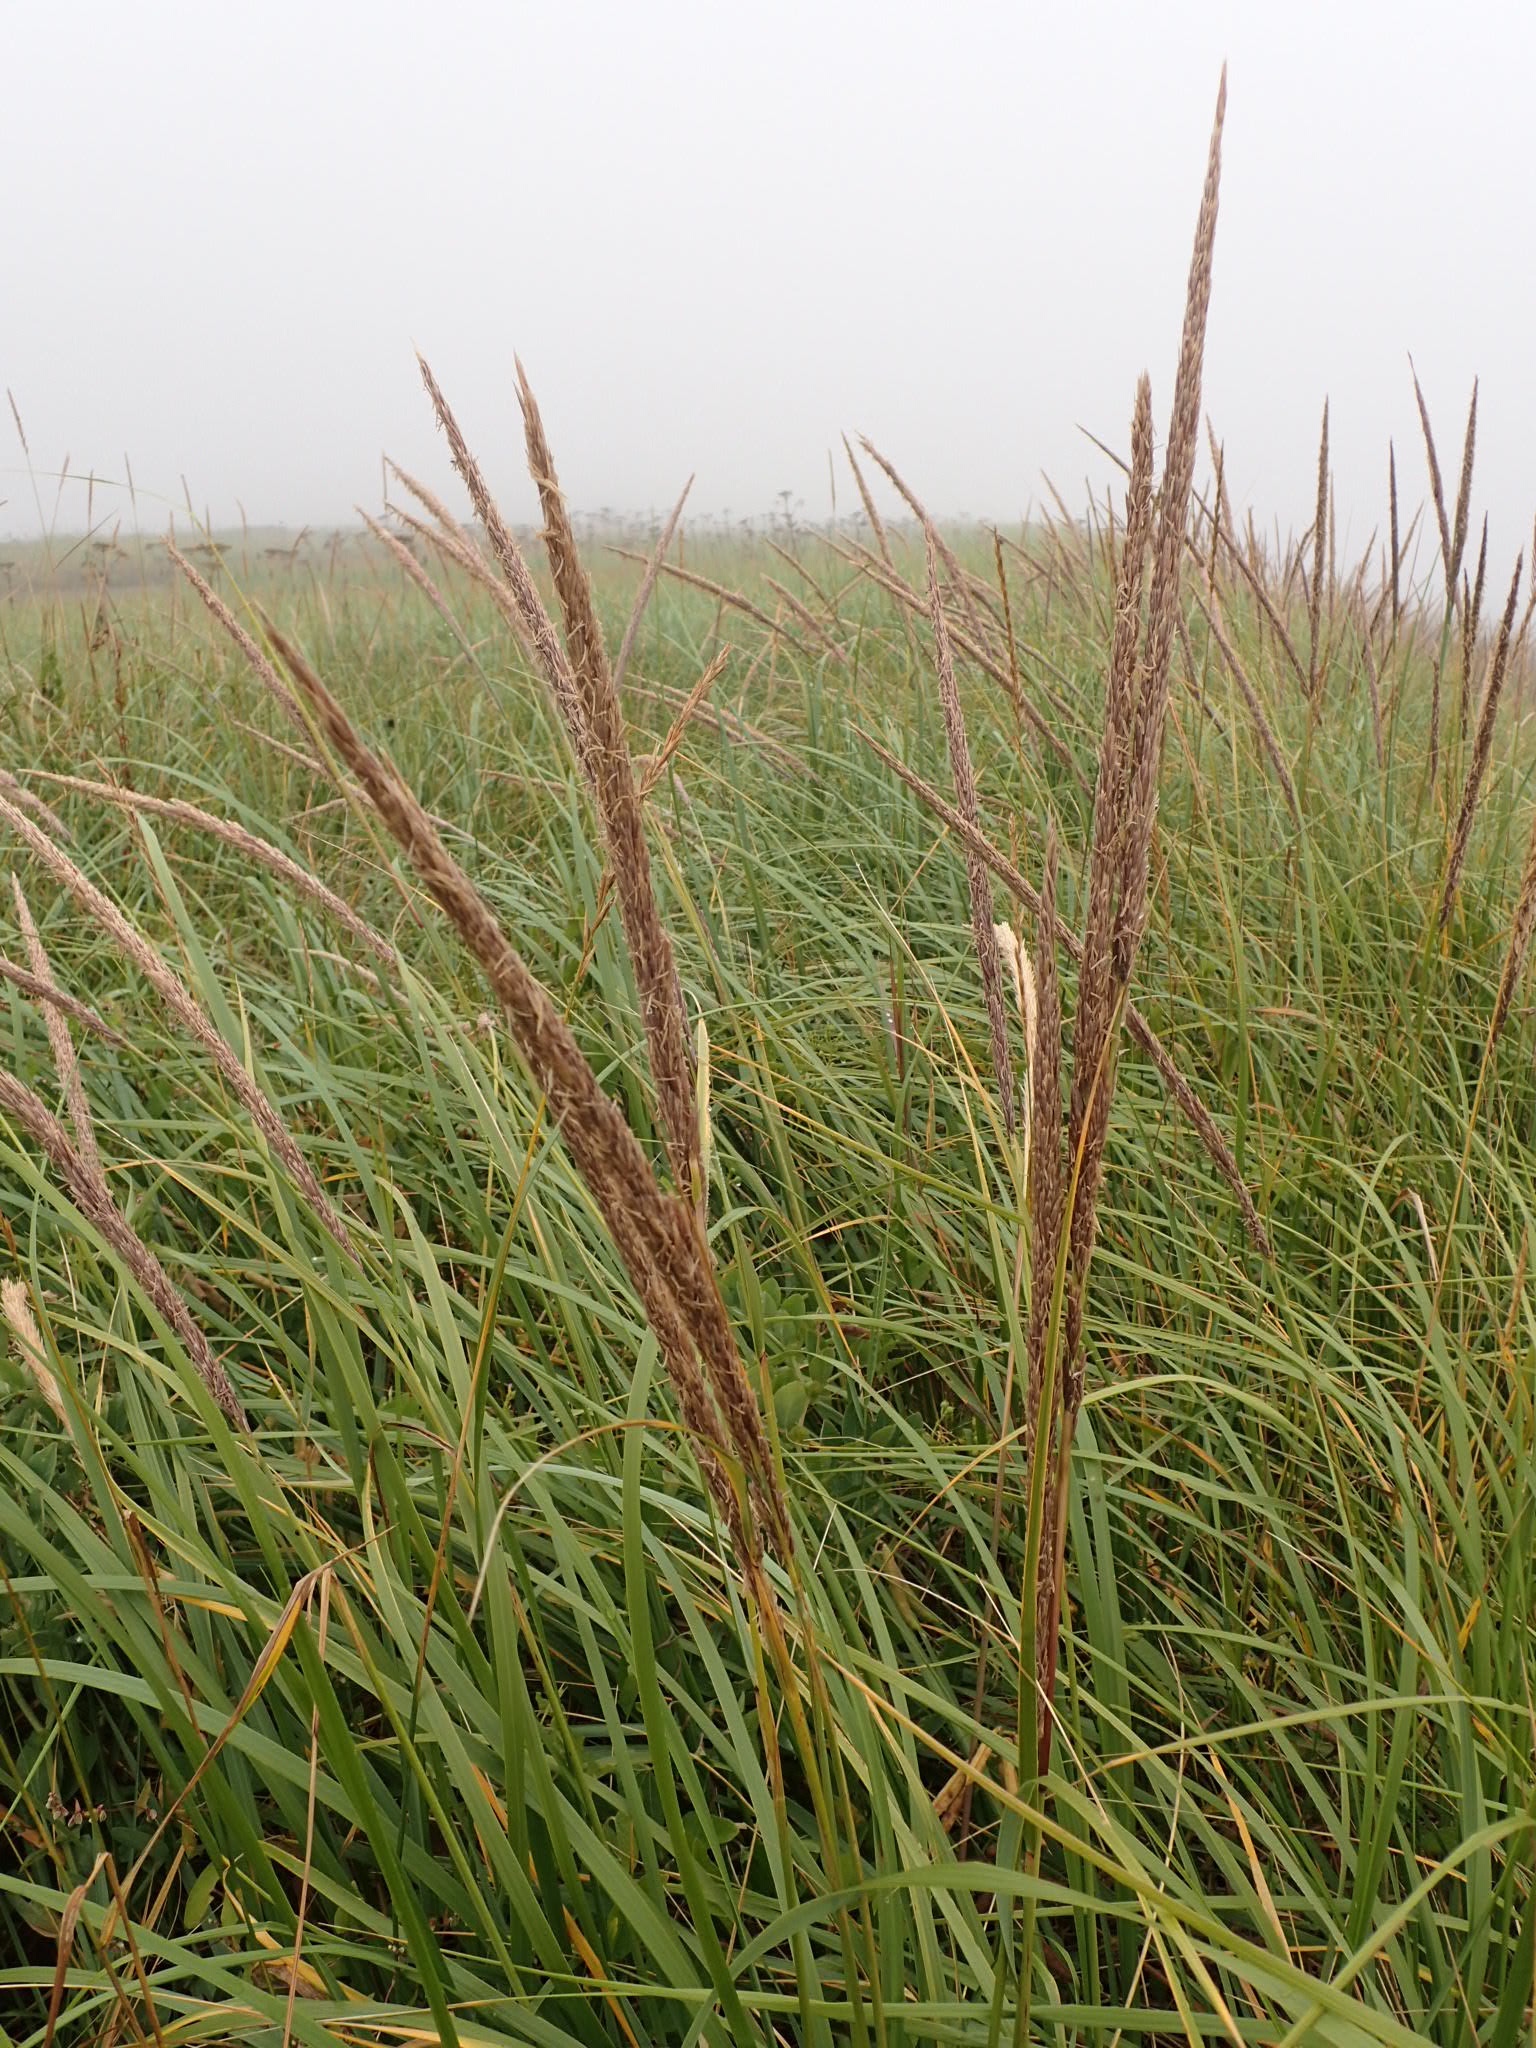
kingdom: Plantae
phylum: Tracheophyta
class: Liliopsida
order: Poales
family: Poaceae
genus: Calamagrostis
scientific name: Calamagrostis breviligulata
